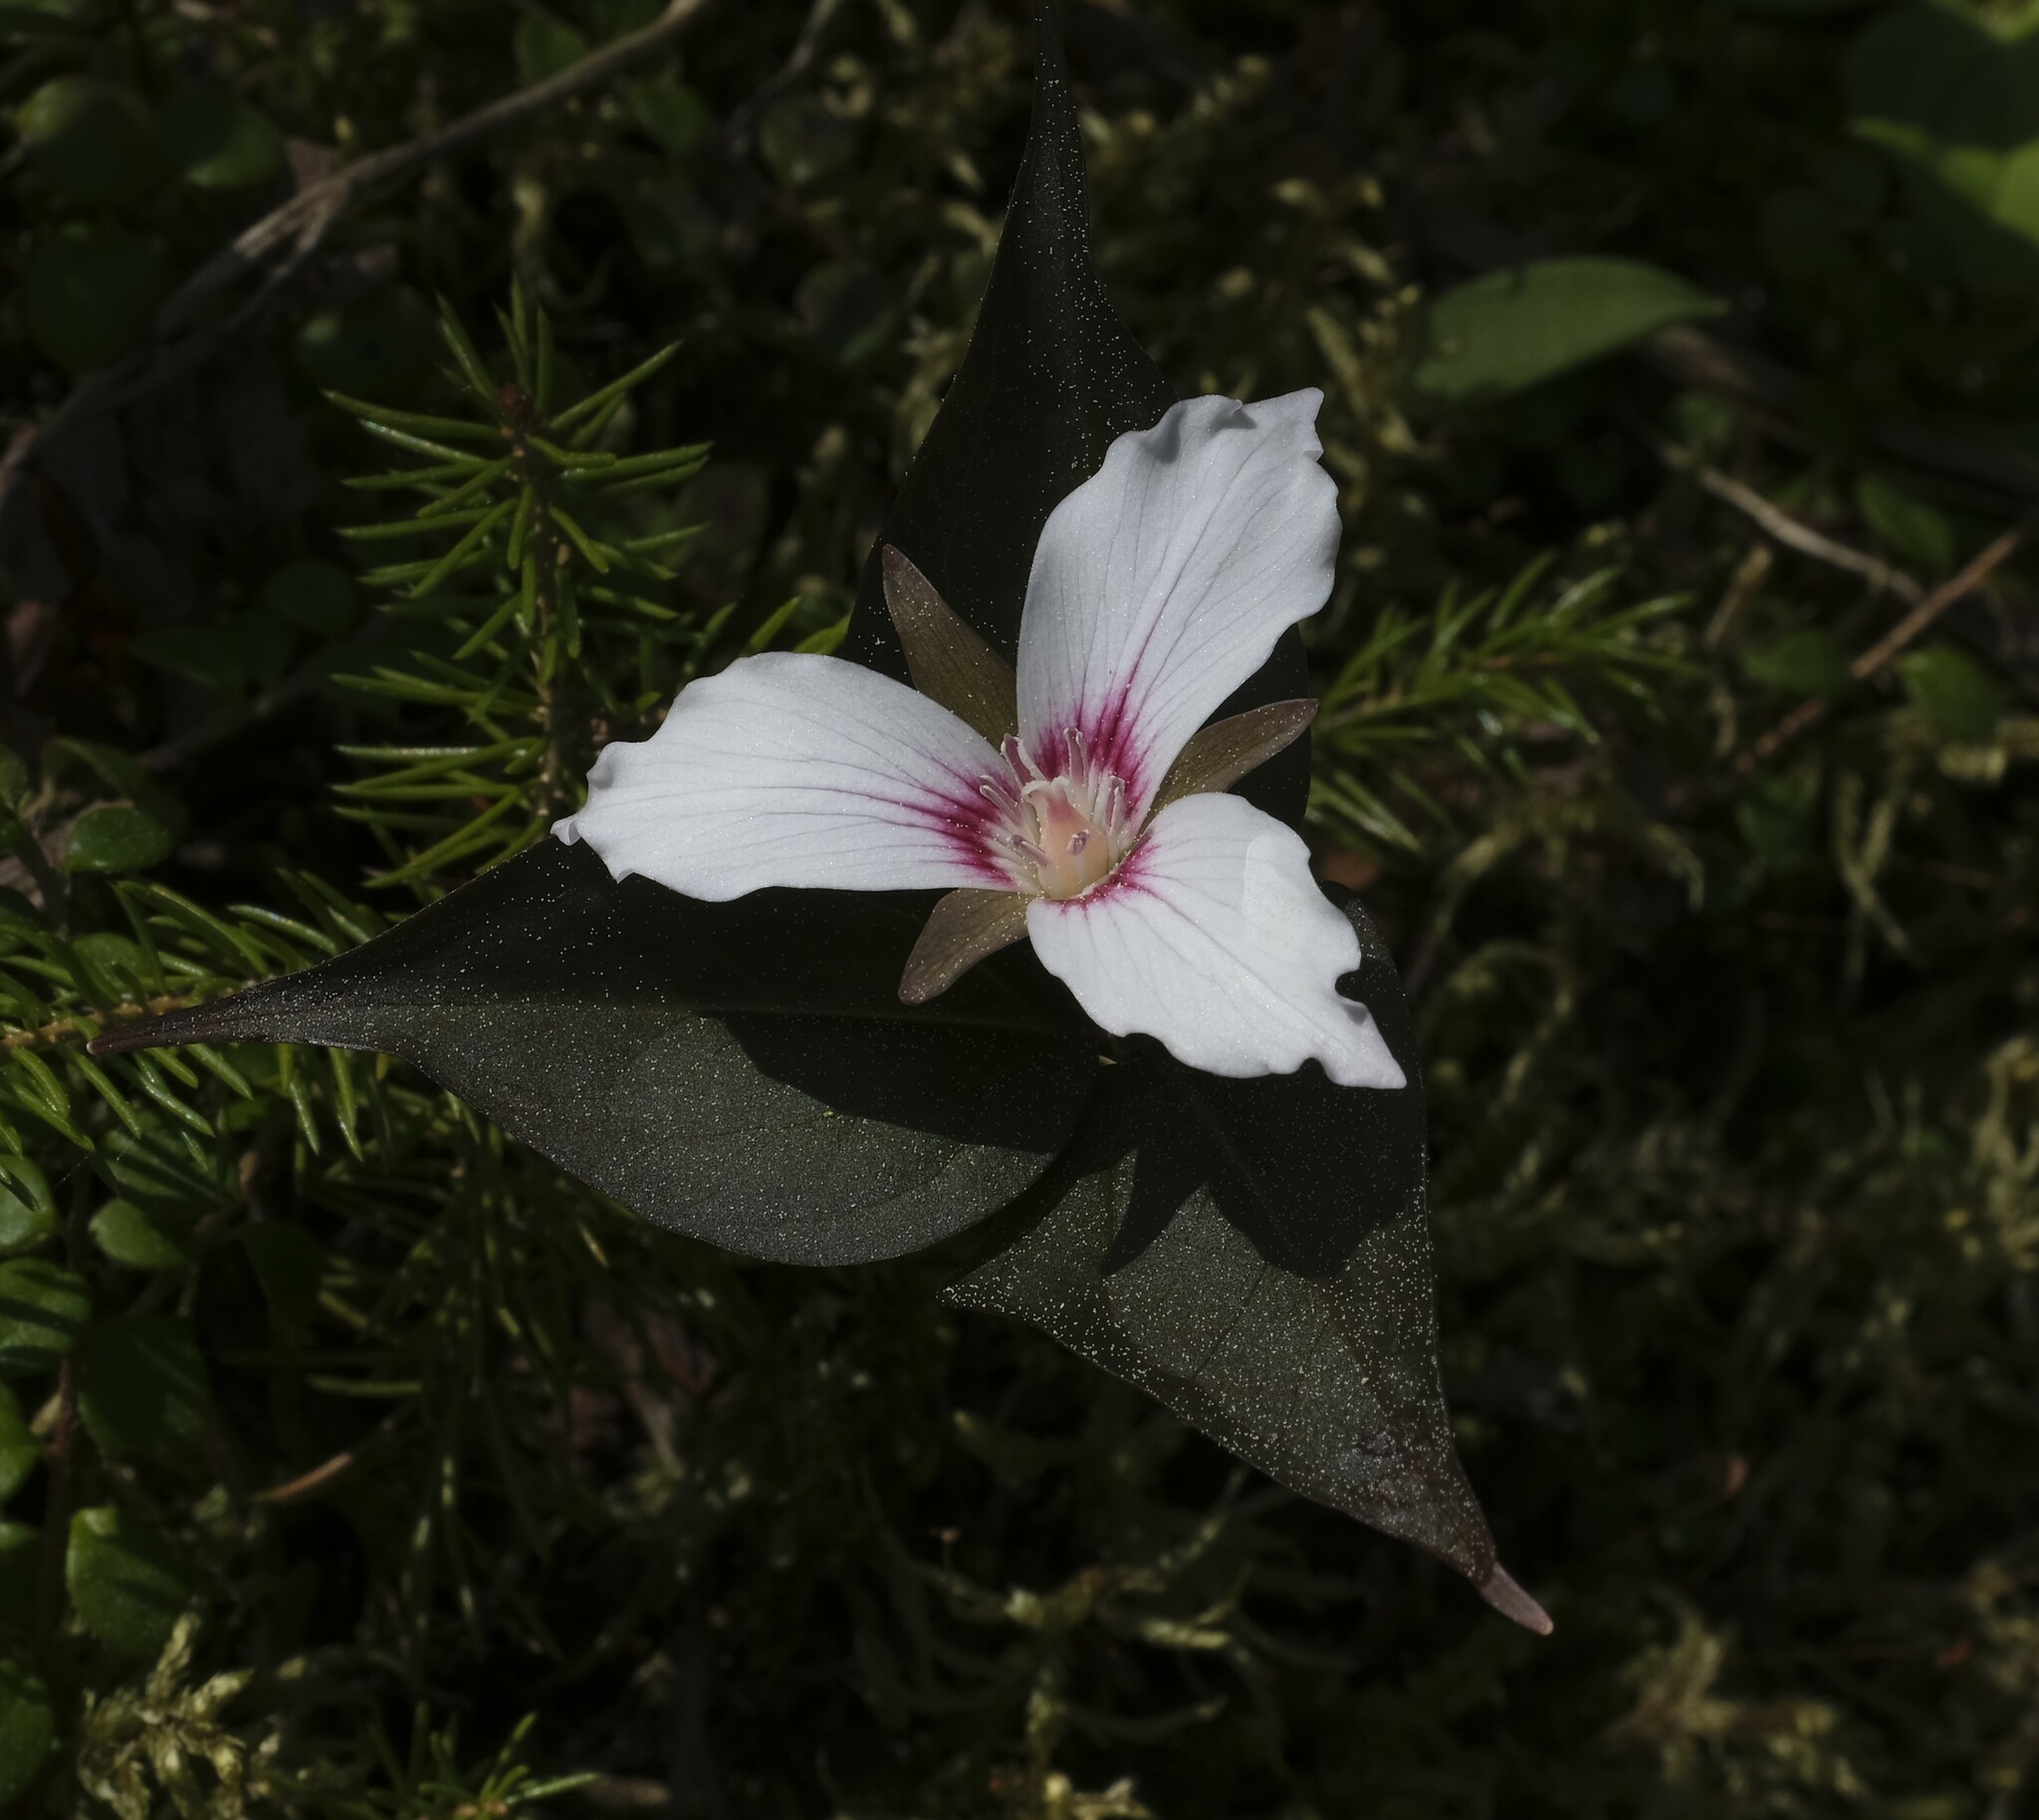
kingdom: Plantae
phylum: Tracheophyta
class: Liliopsida
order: Liliales
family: Melanthiaceae
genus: Trillium
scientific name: Trillium undulatum
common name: Paint trillium
